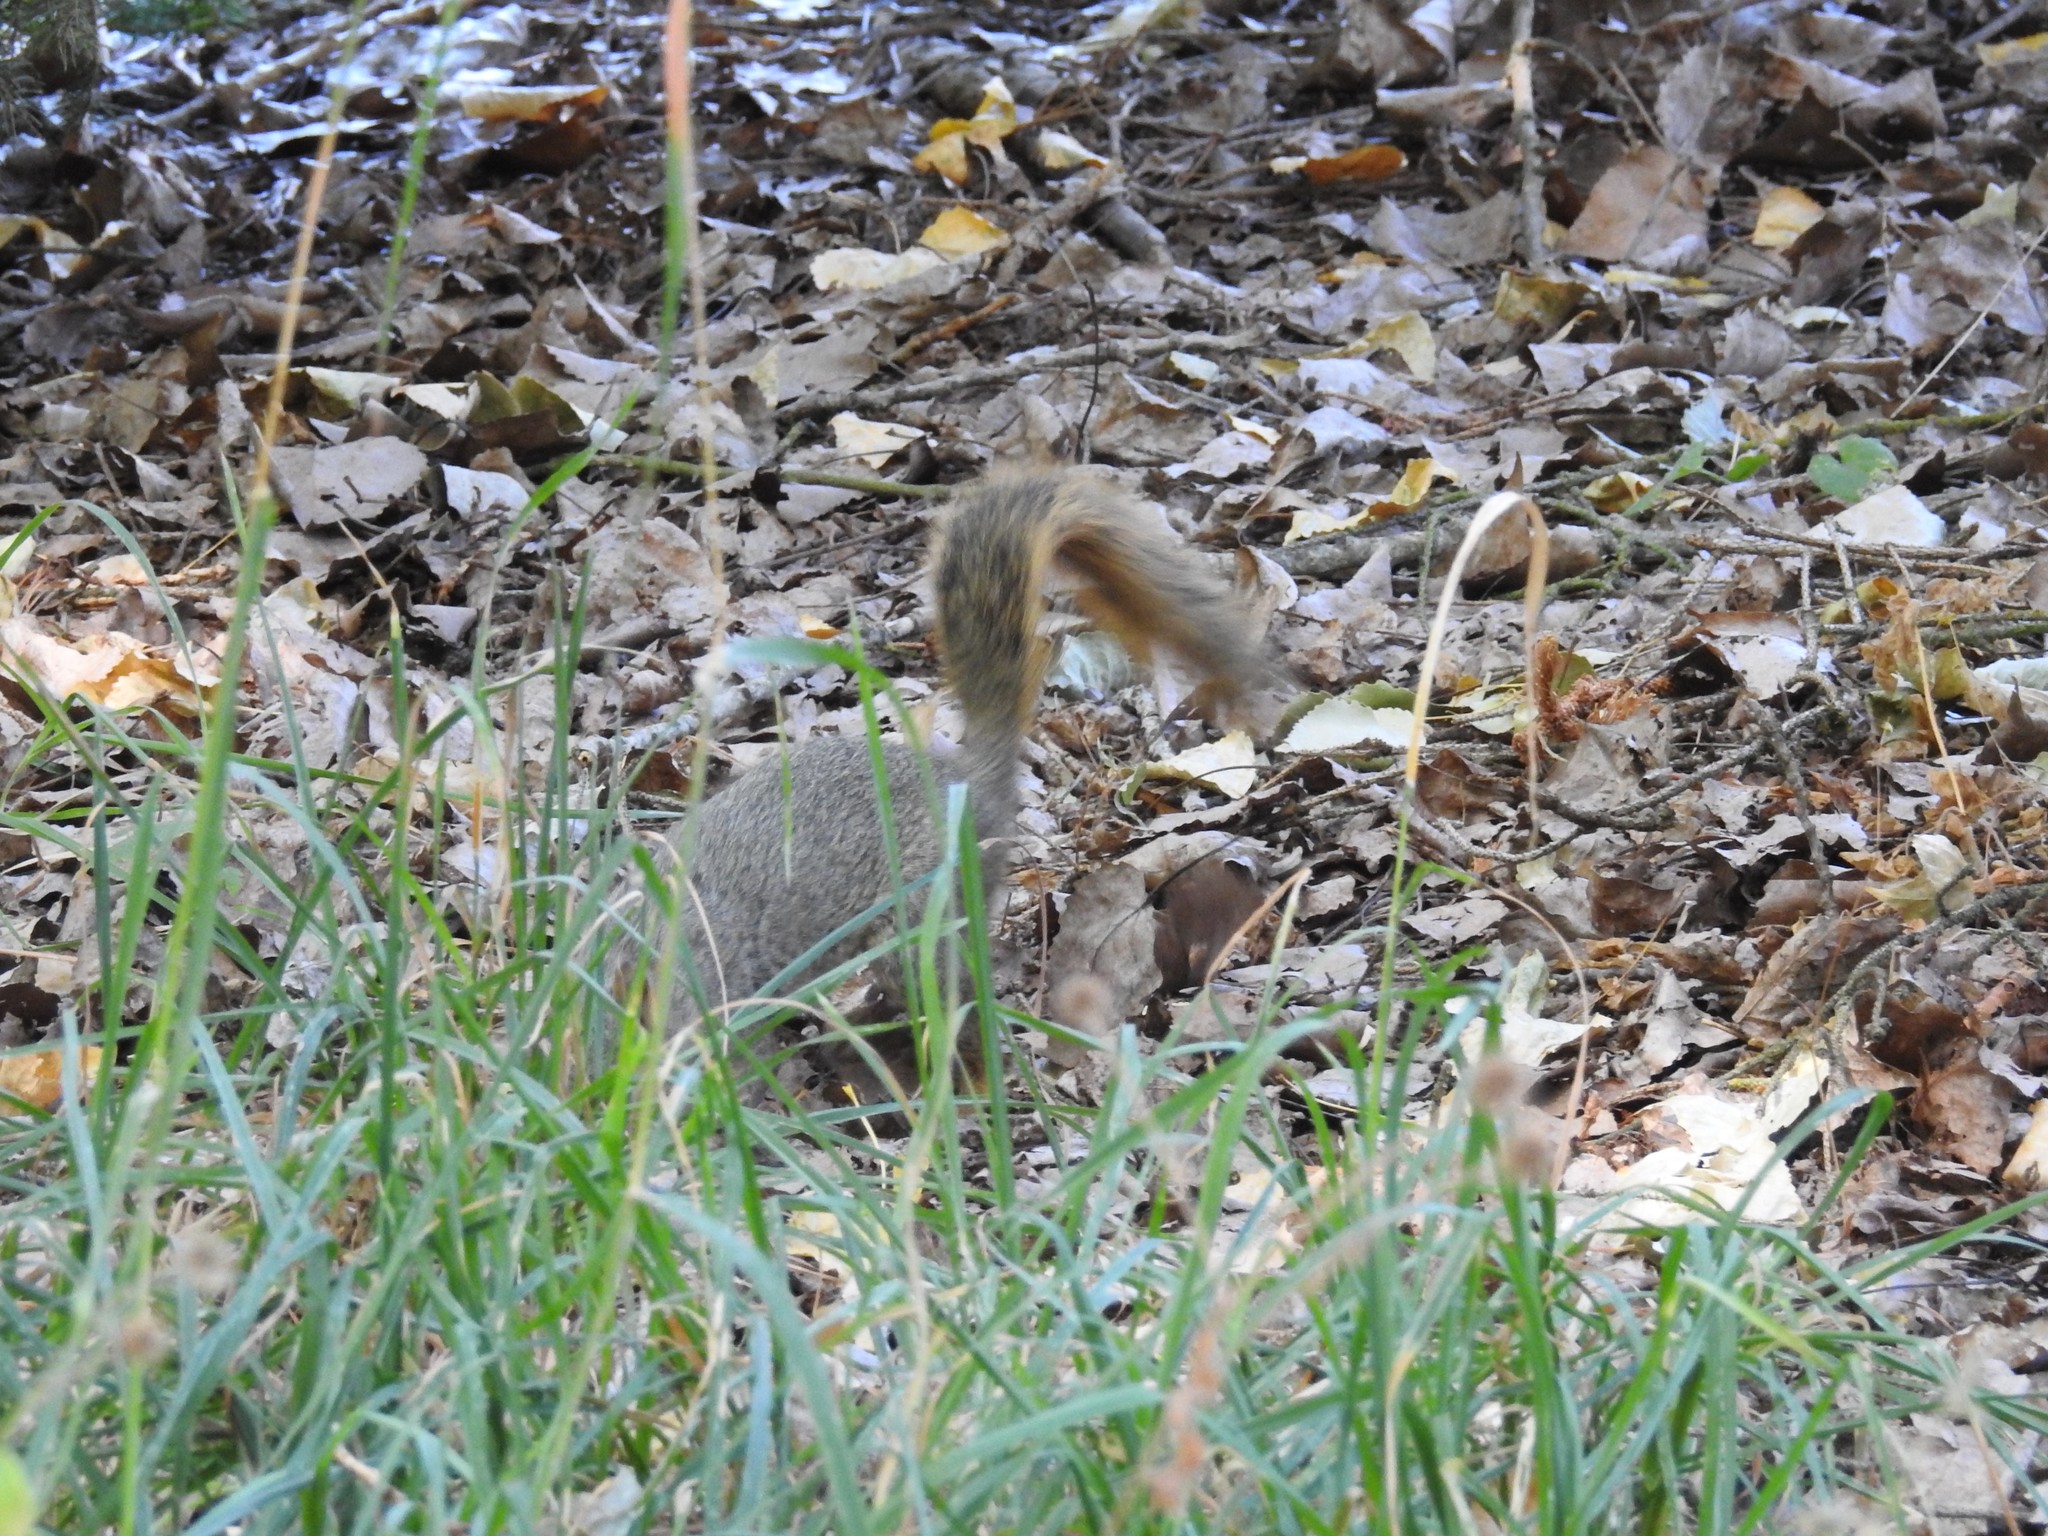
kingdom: Animalia
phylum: Chordata
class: Mammalia
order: Rodentia
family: Sciuridae
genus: Sciurus
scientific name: Sciurus niger
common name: Fox squirrel
